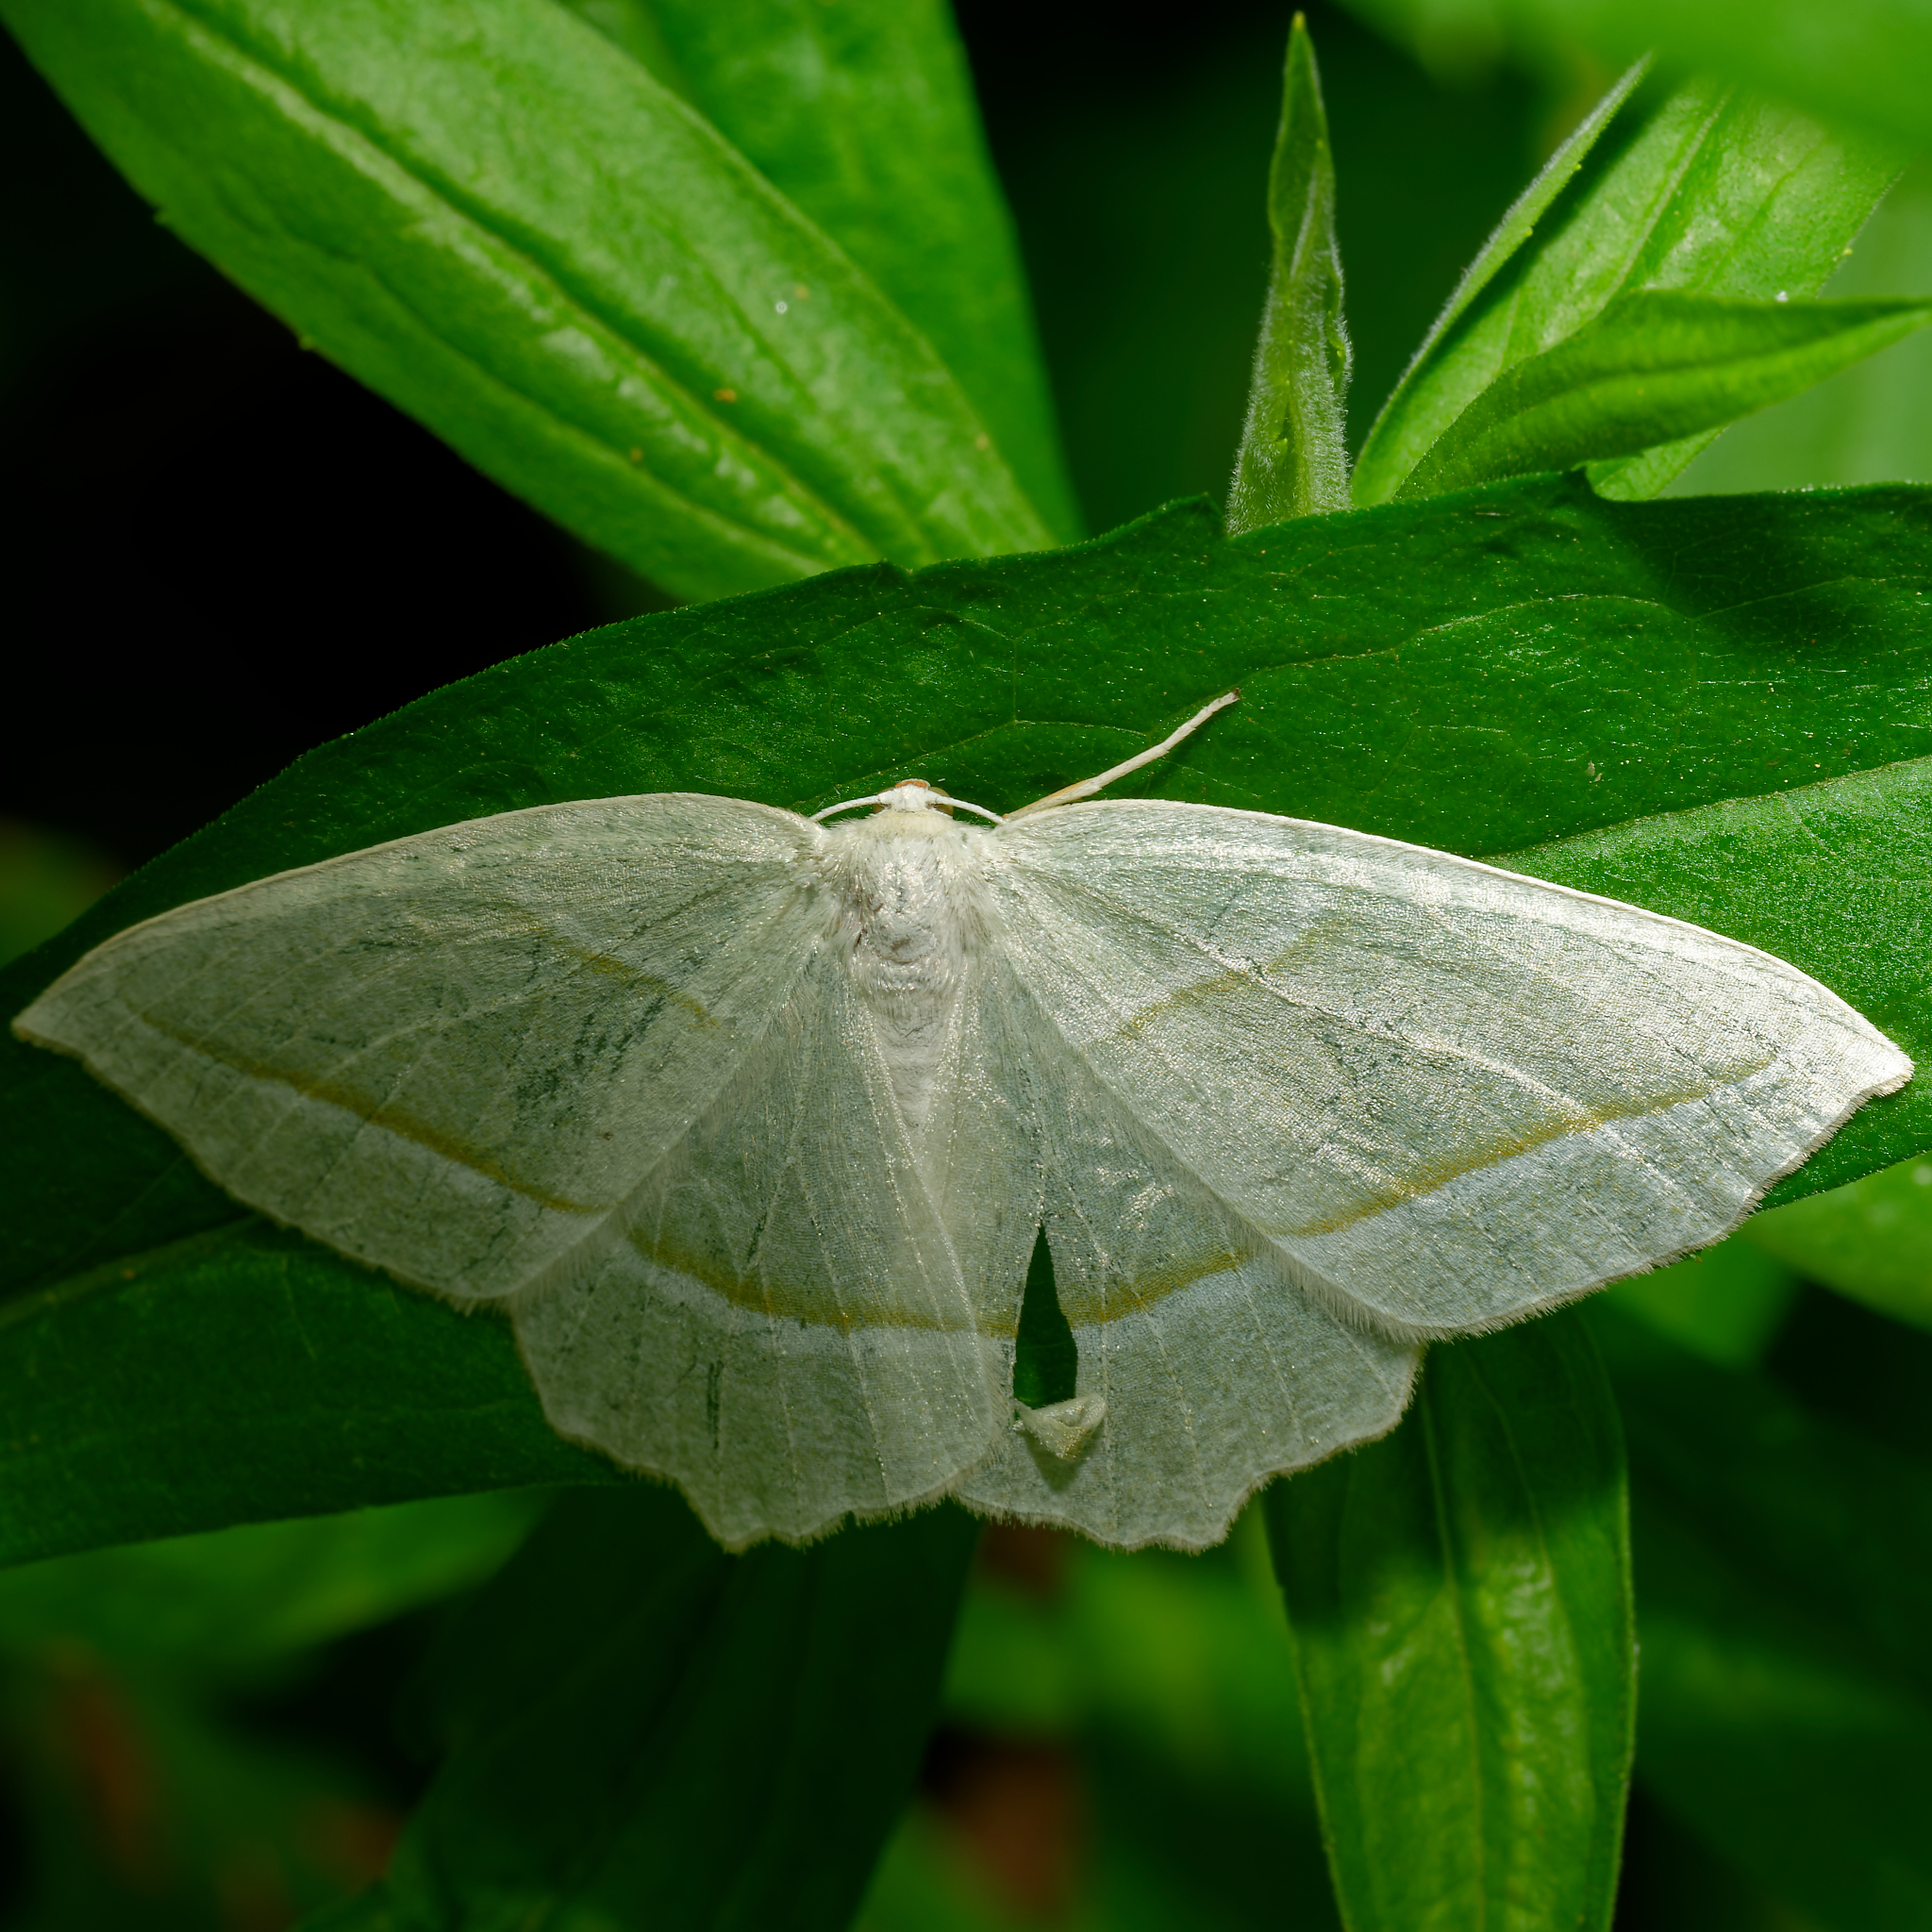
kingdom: Animalia
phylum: Arthropoda
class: Insecta
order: Lepidoptera
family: Geometridae
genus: Campaea
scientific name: Campaea perlata
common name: Fringed looper
